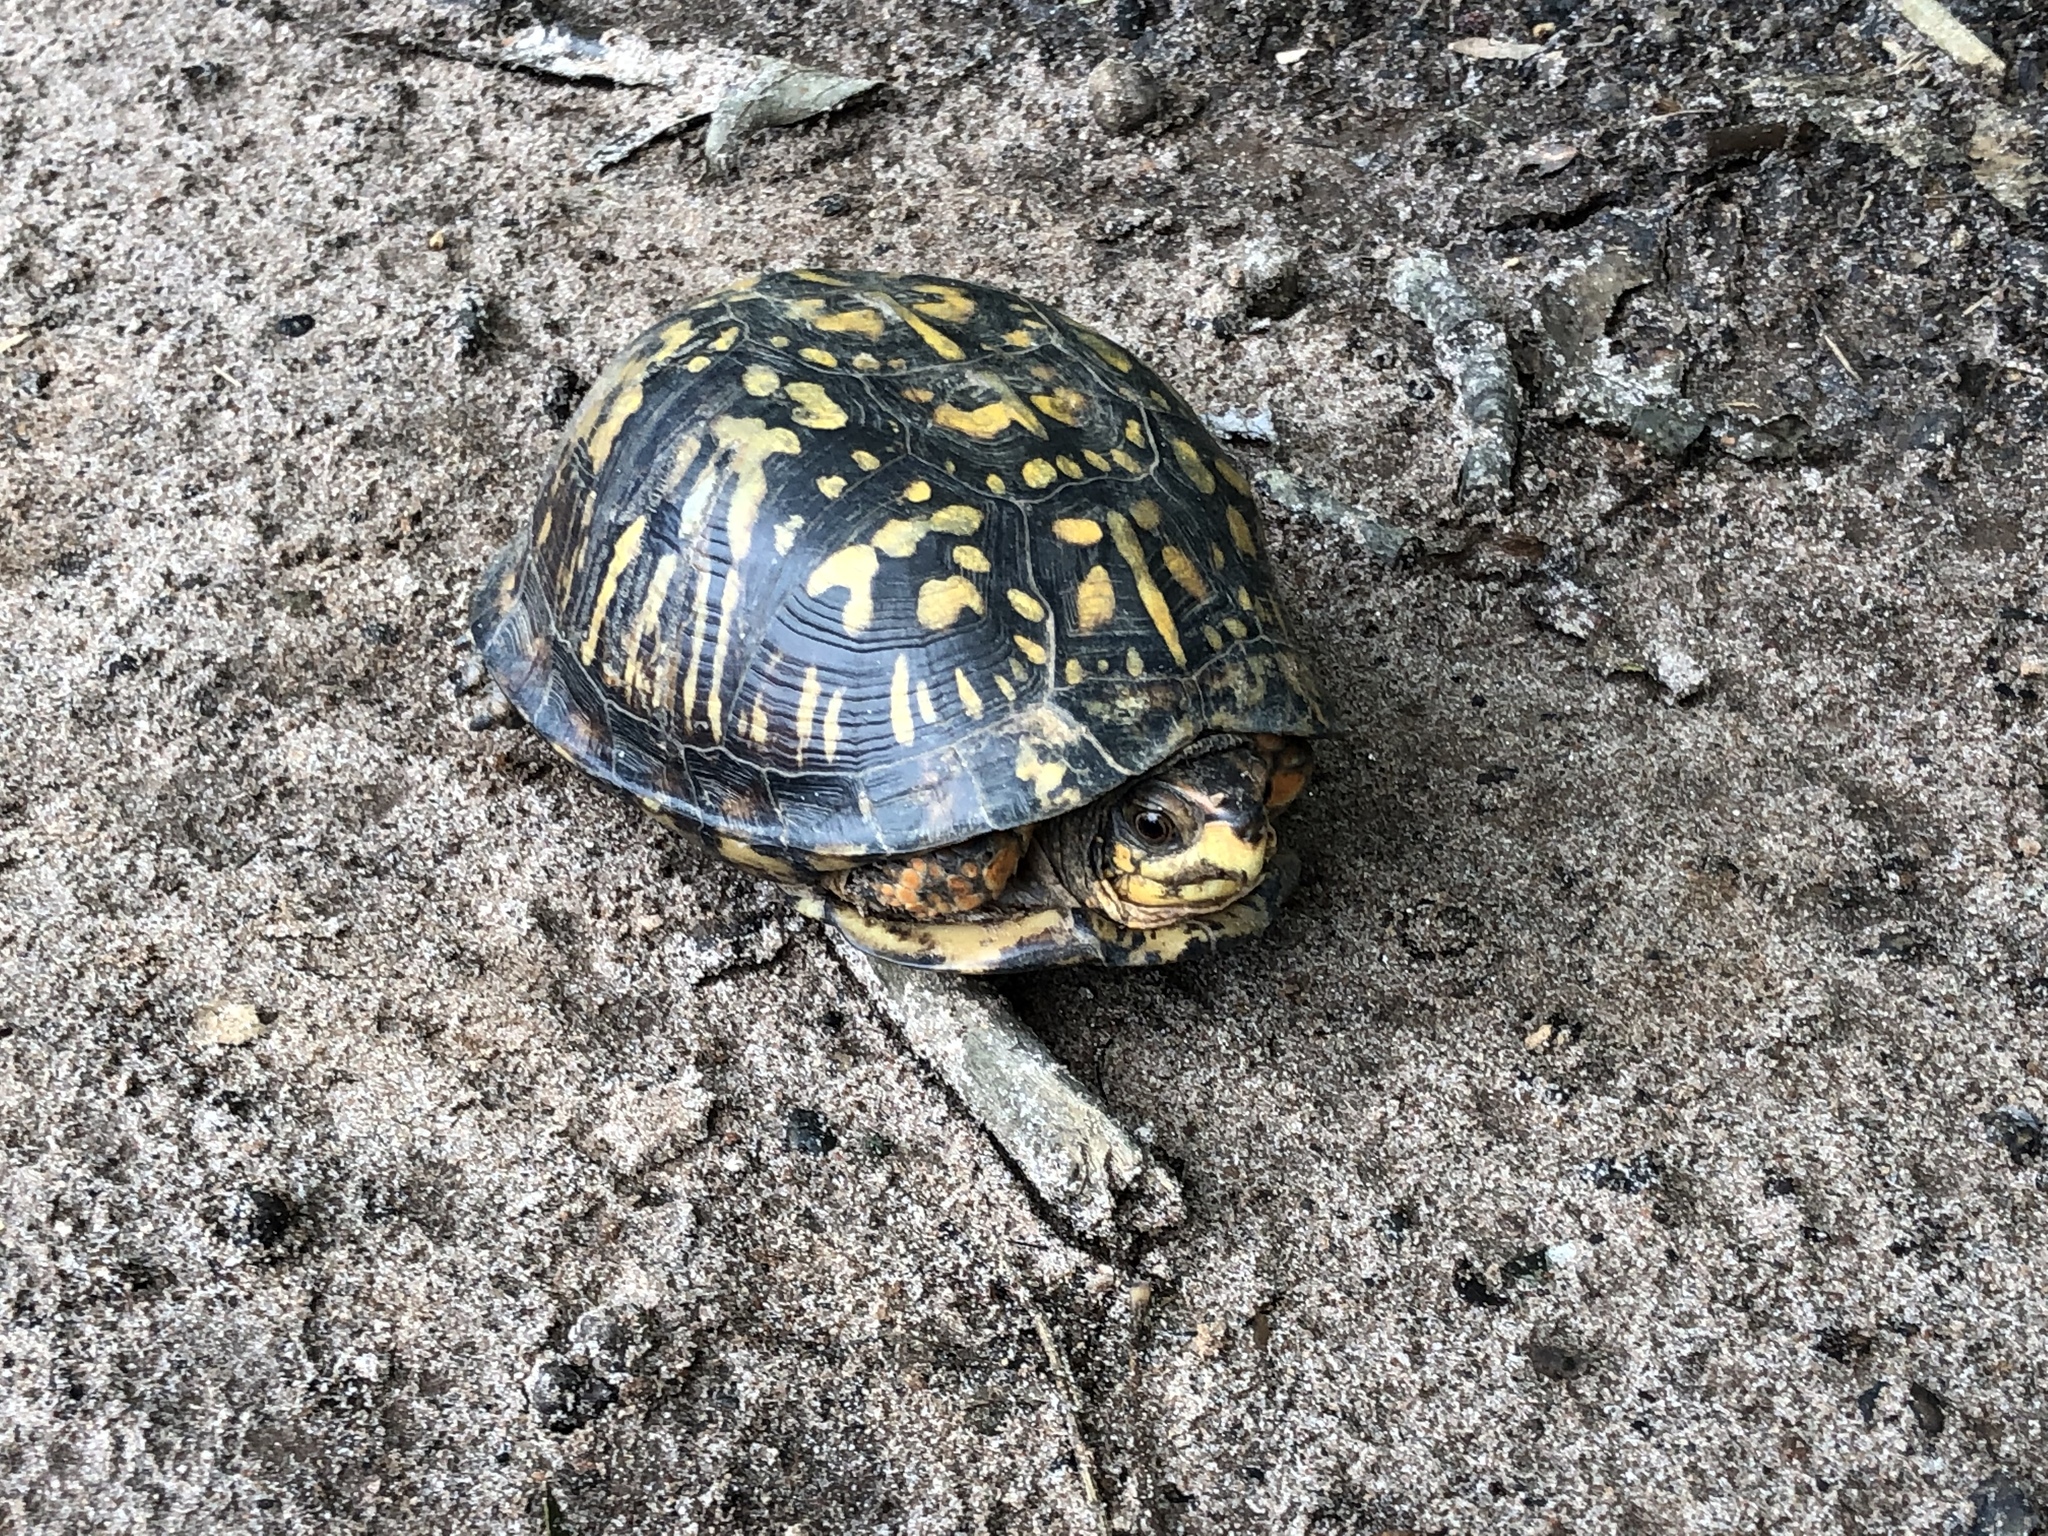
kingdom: Animalia
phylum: Chordata
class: Testudines
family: Emydidae
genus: Terrapene
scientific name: Terrapene carolina
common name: Common box turtle
